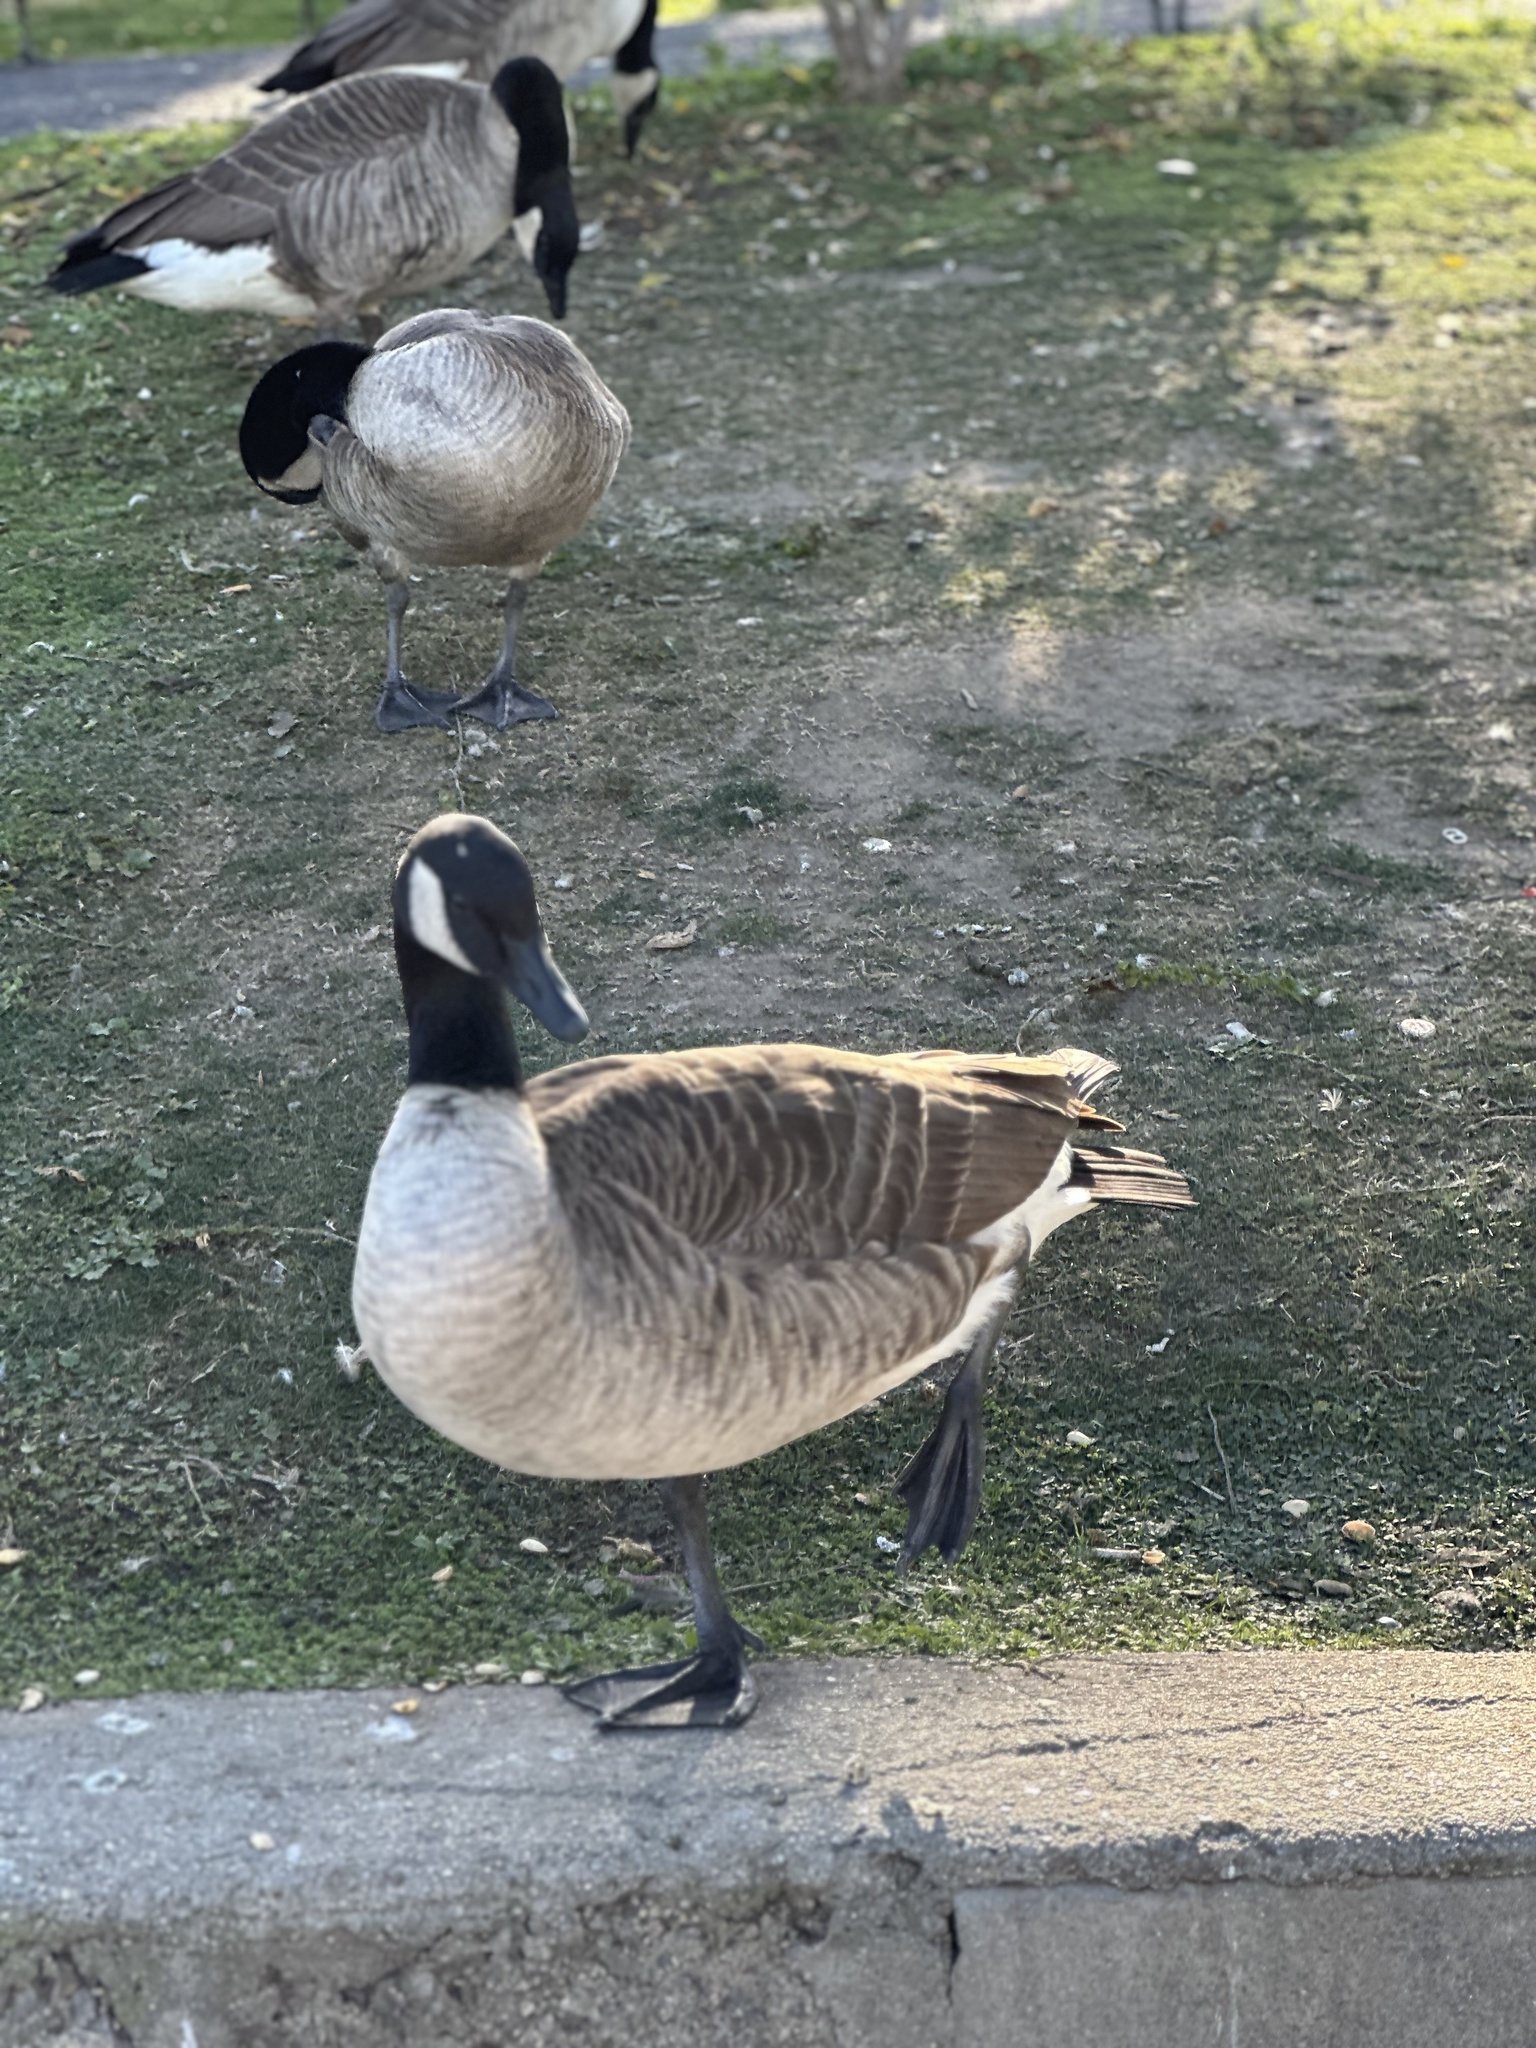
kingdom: Animalia
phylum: Chordata
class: Aves
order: Anseriformes
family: Anatidae
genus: Branta
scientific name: Branta canadensis
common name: Canada goose
